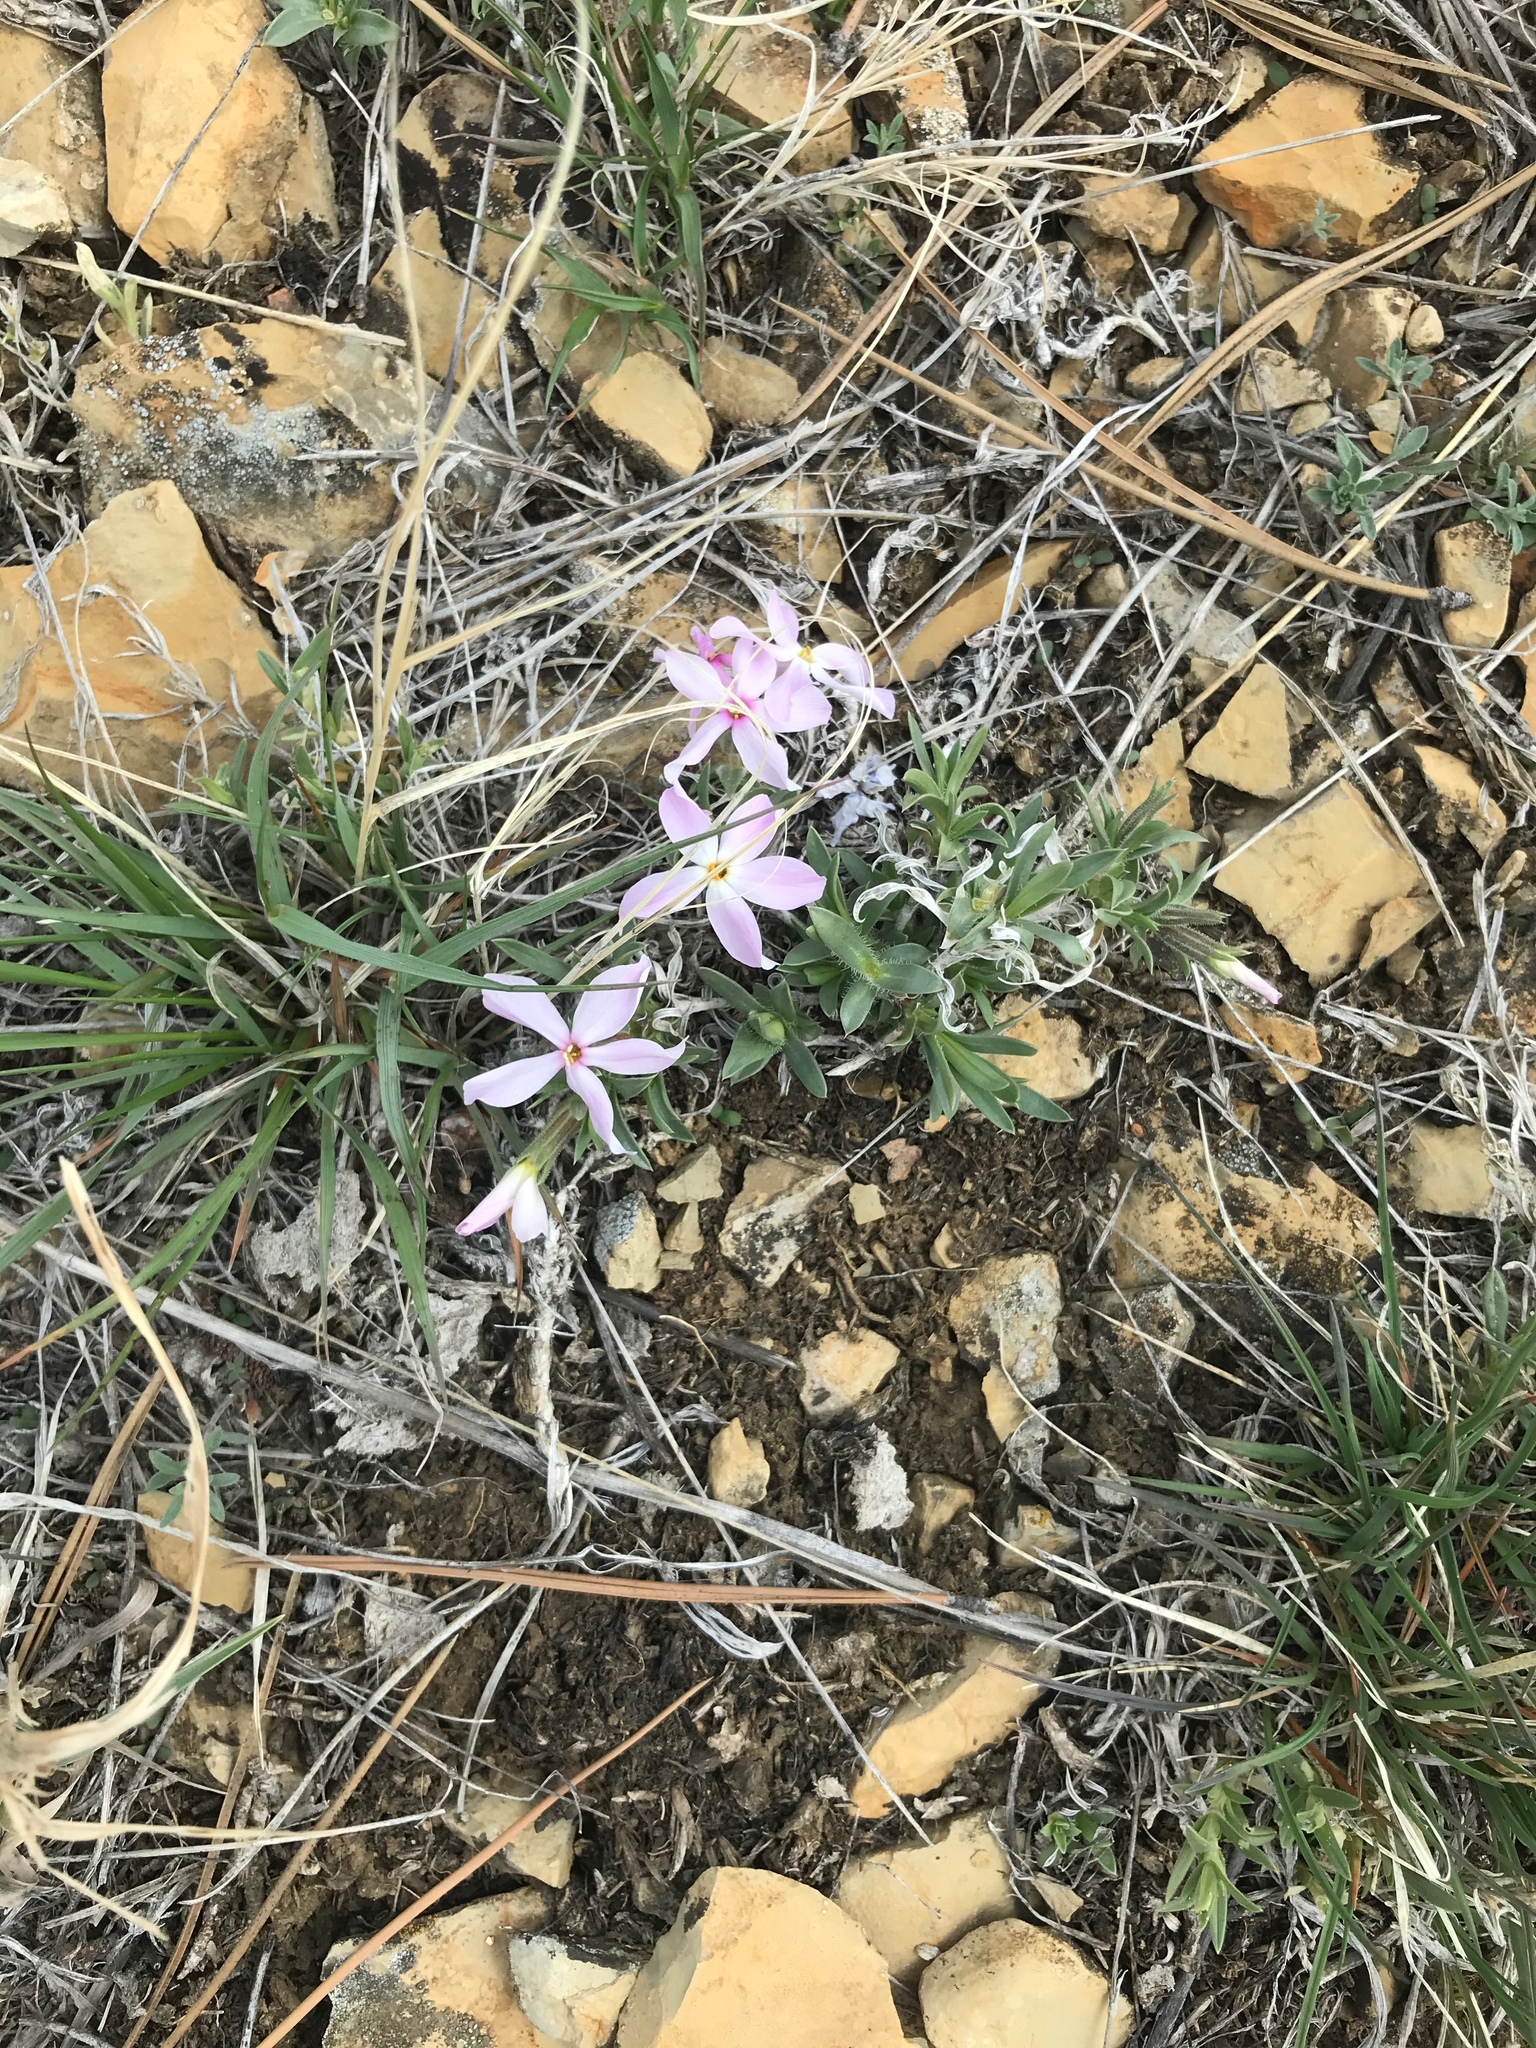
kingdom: Plantae
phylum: Tracheophyta
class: Magnoliopsida
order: Ericales
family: Polemoniaceae
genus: Phlox
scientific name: Phlox alyssifolia
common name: Blue phlox
